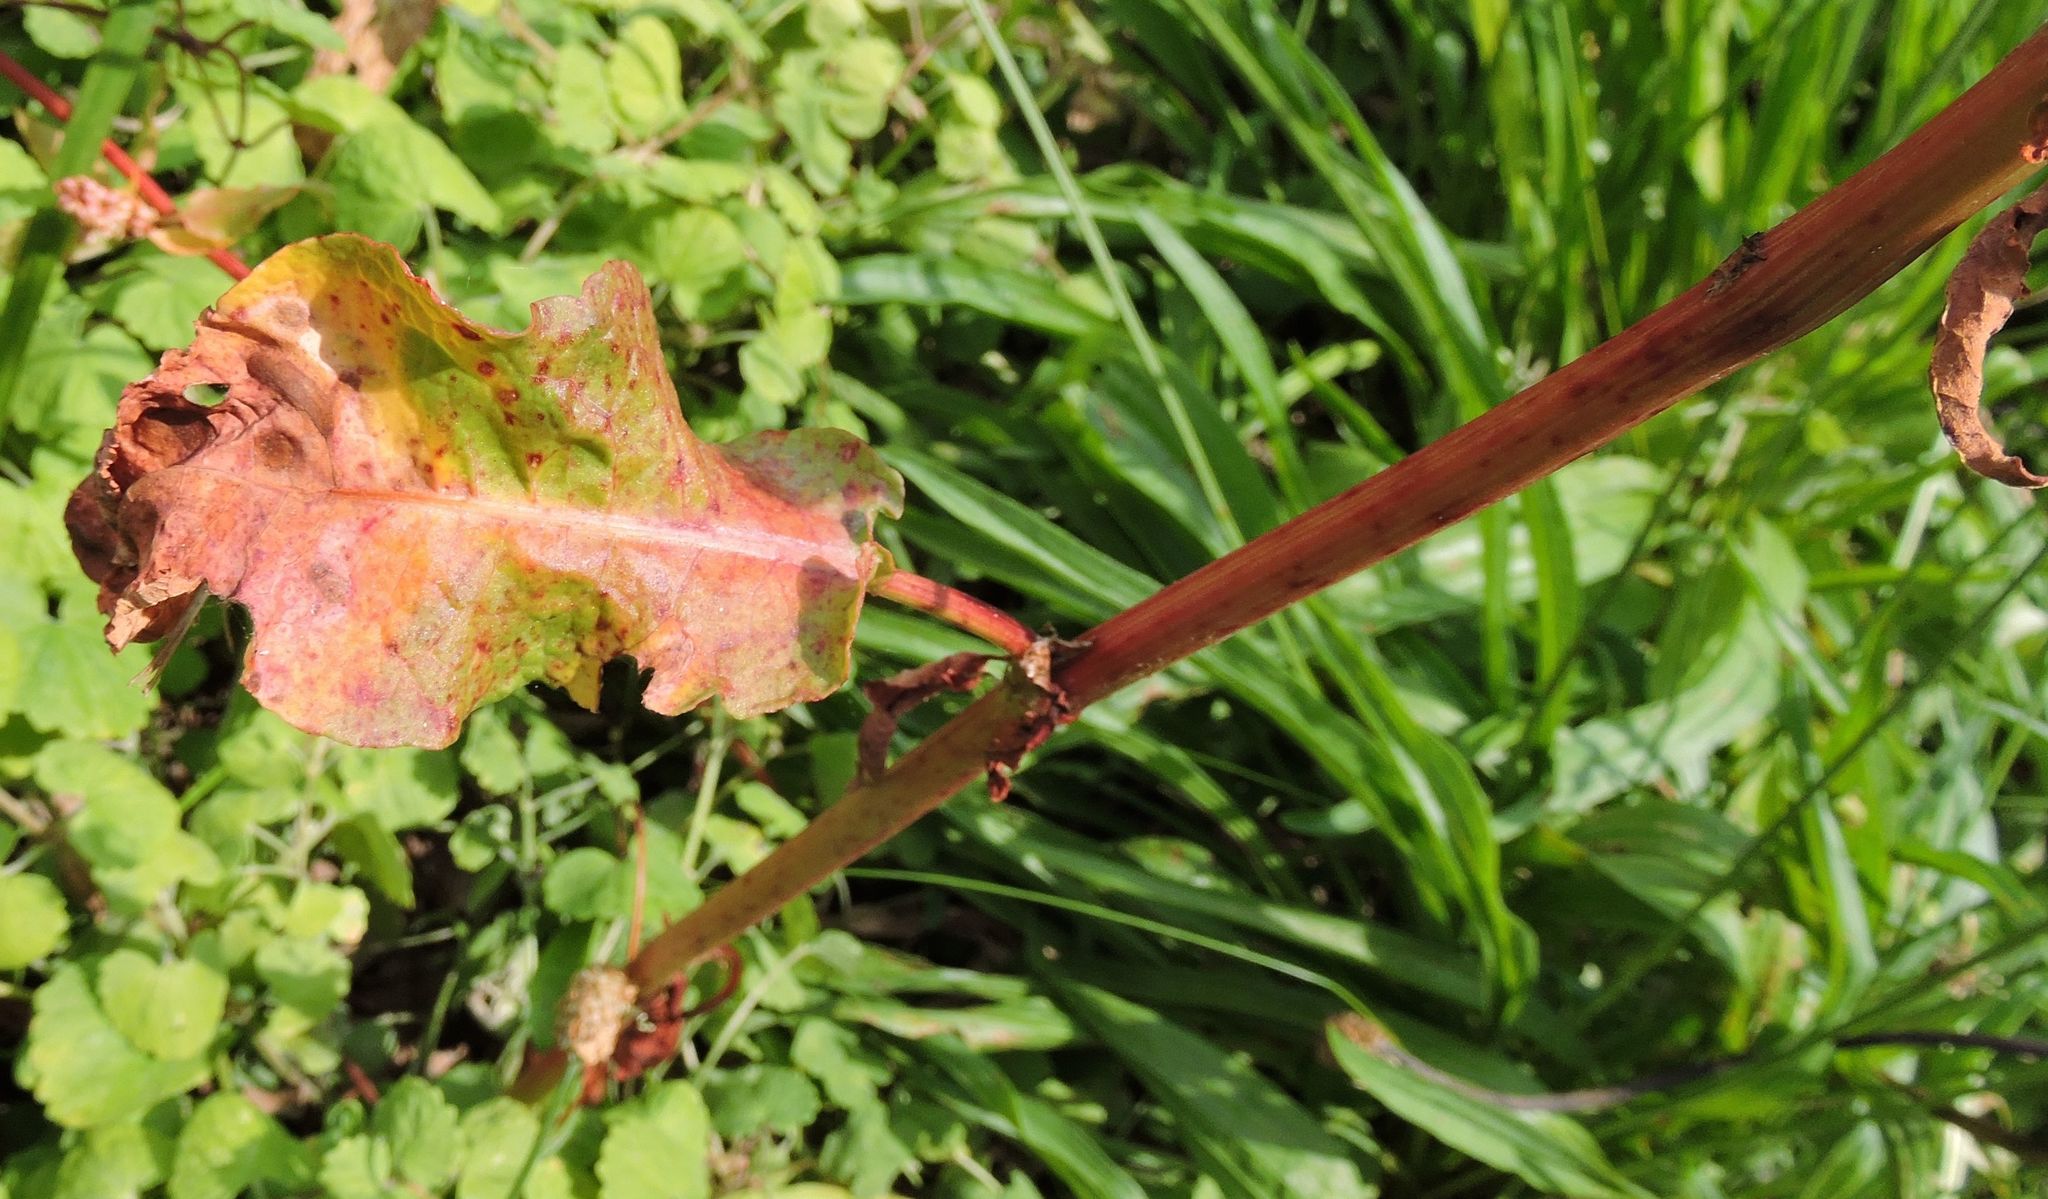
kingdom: Plantae
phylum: Tracheophyta
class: Magnoliopsida
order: Caryophyllales
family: Polygonaceae
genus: Rumex
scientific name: Rumex crispus
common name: Curled dock
